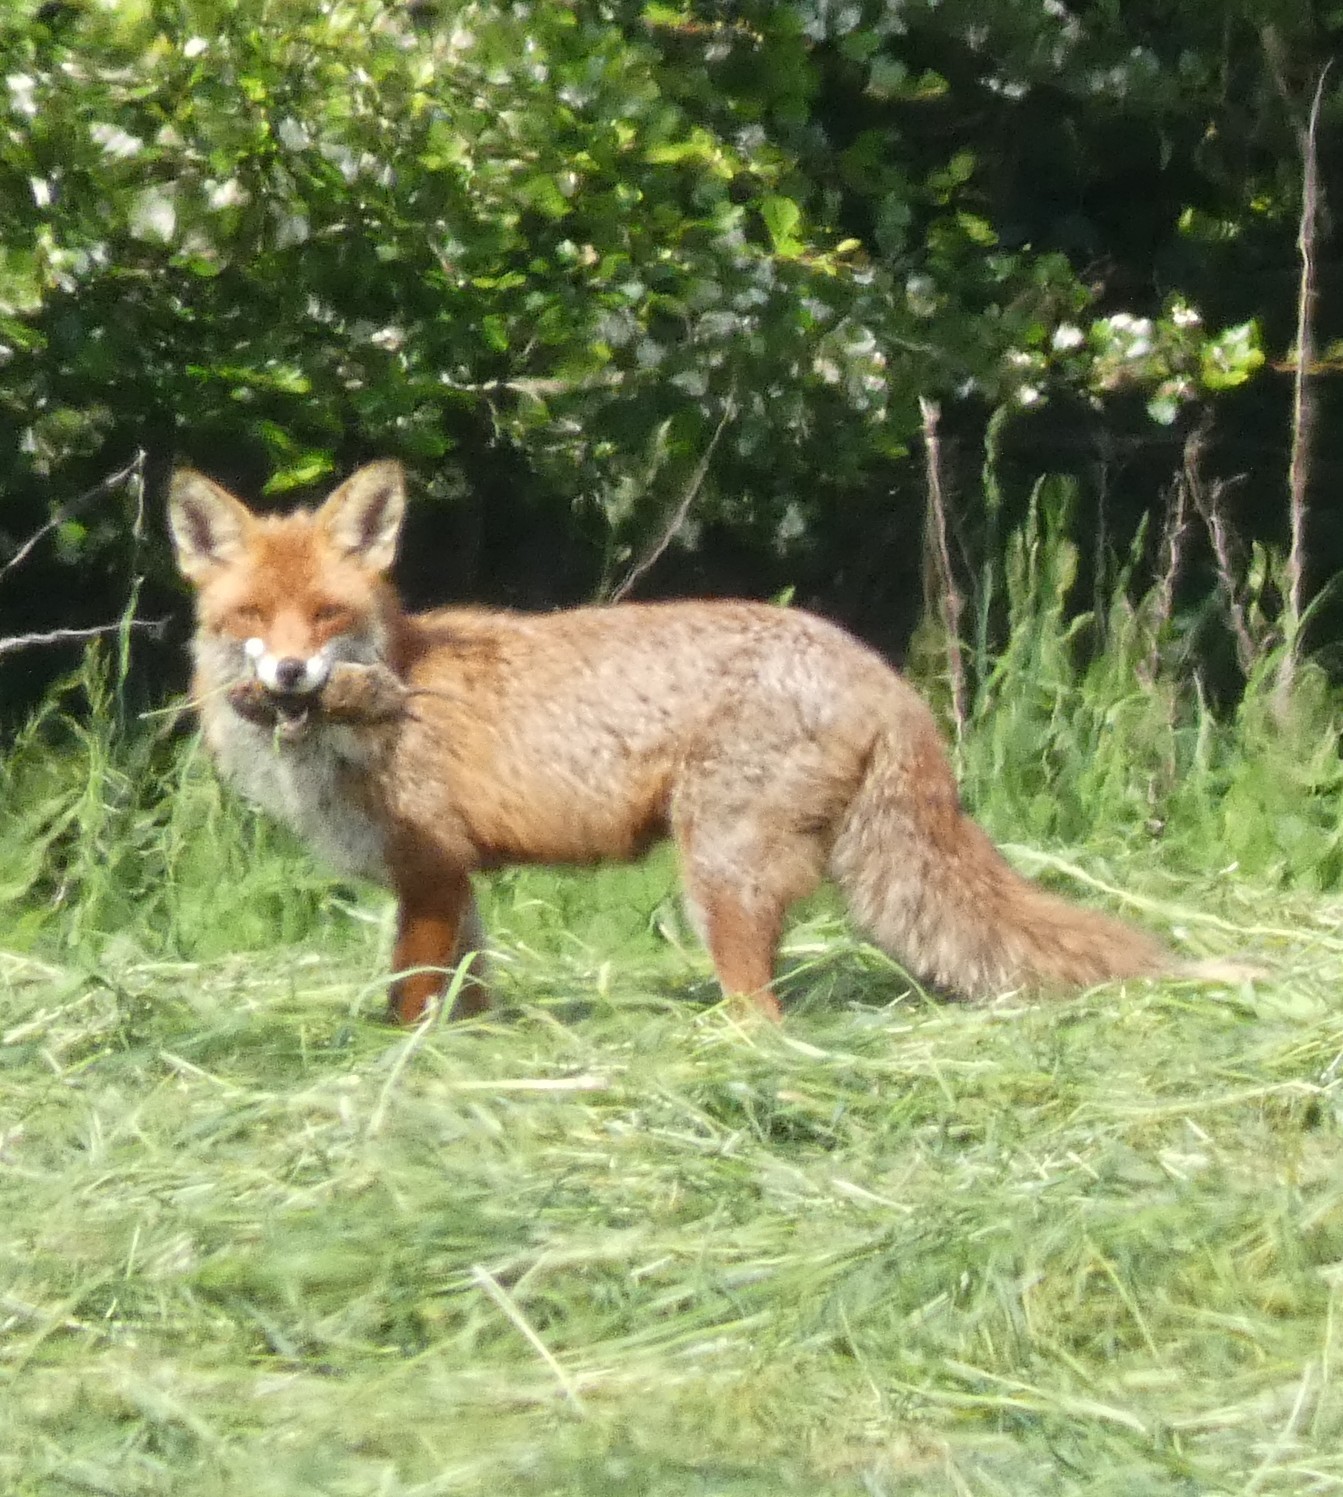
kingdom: Animalia
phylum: Chordata
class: Mammalia
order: Carnivora
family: Canidae
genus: Vulpes
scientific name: Vulpes vulpes
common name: Red fox
